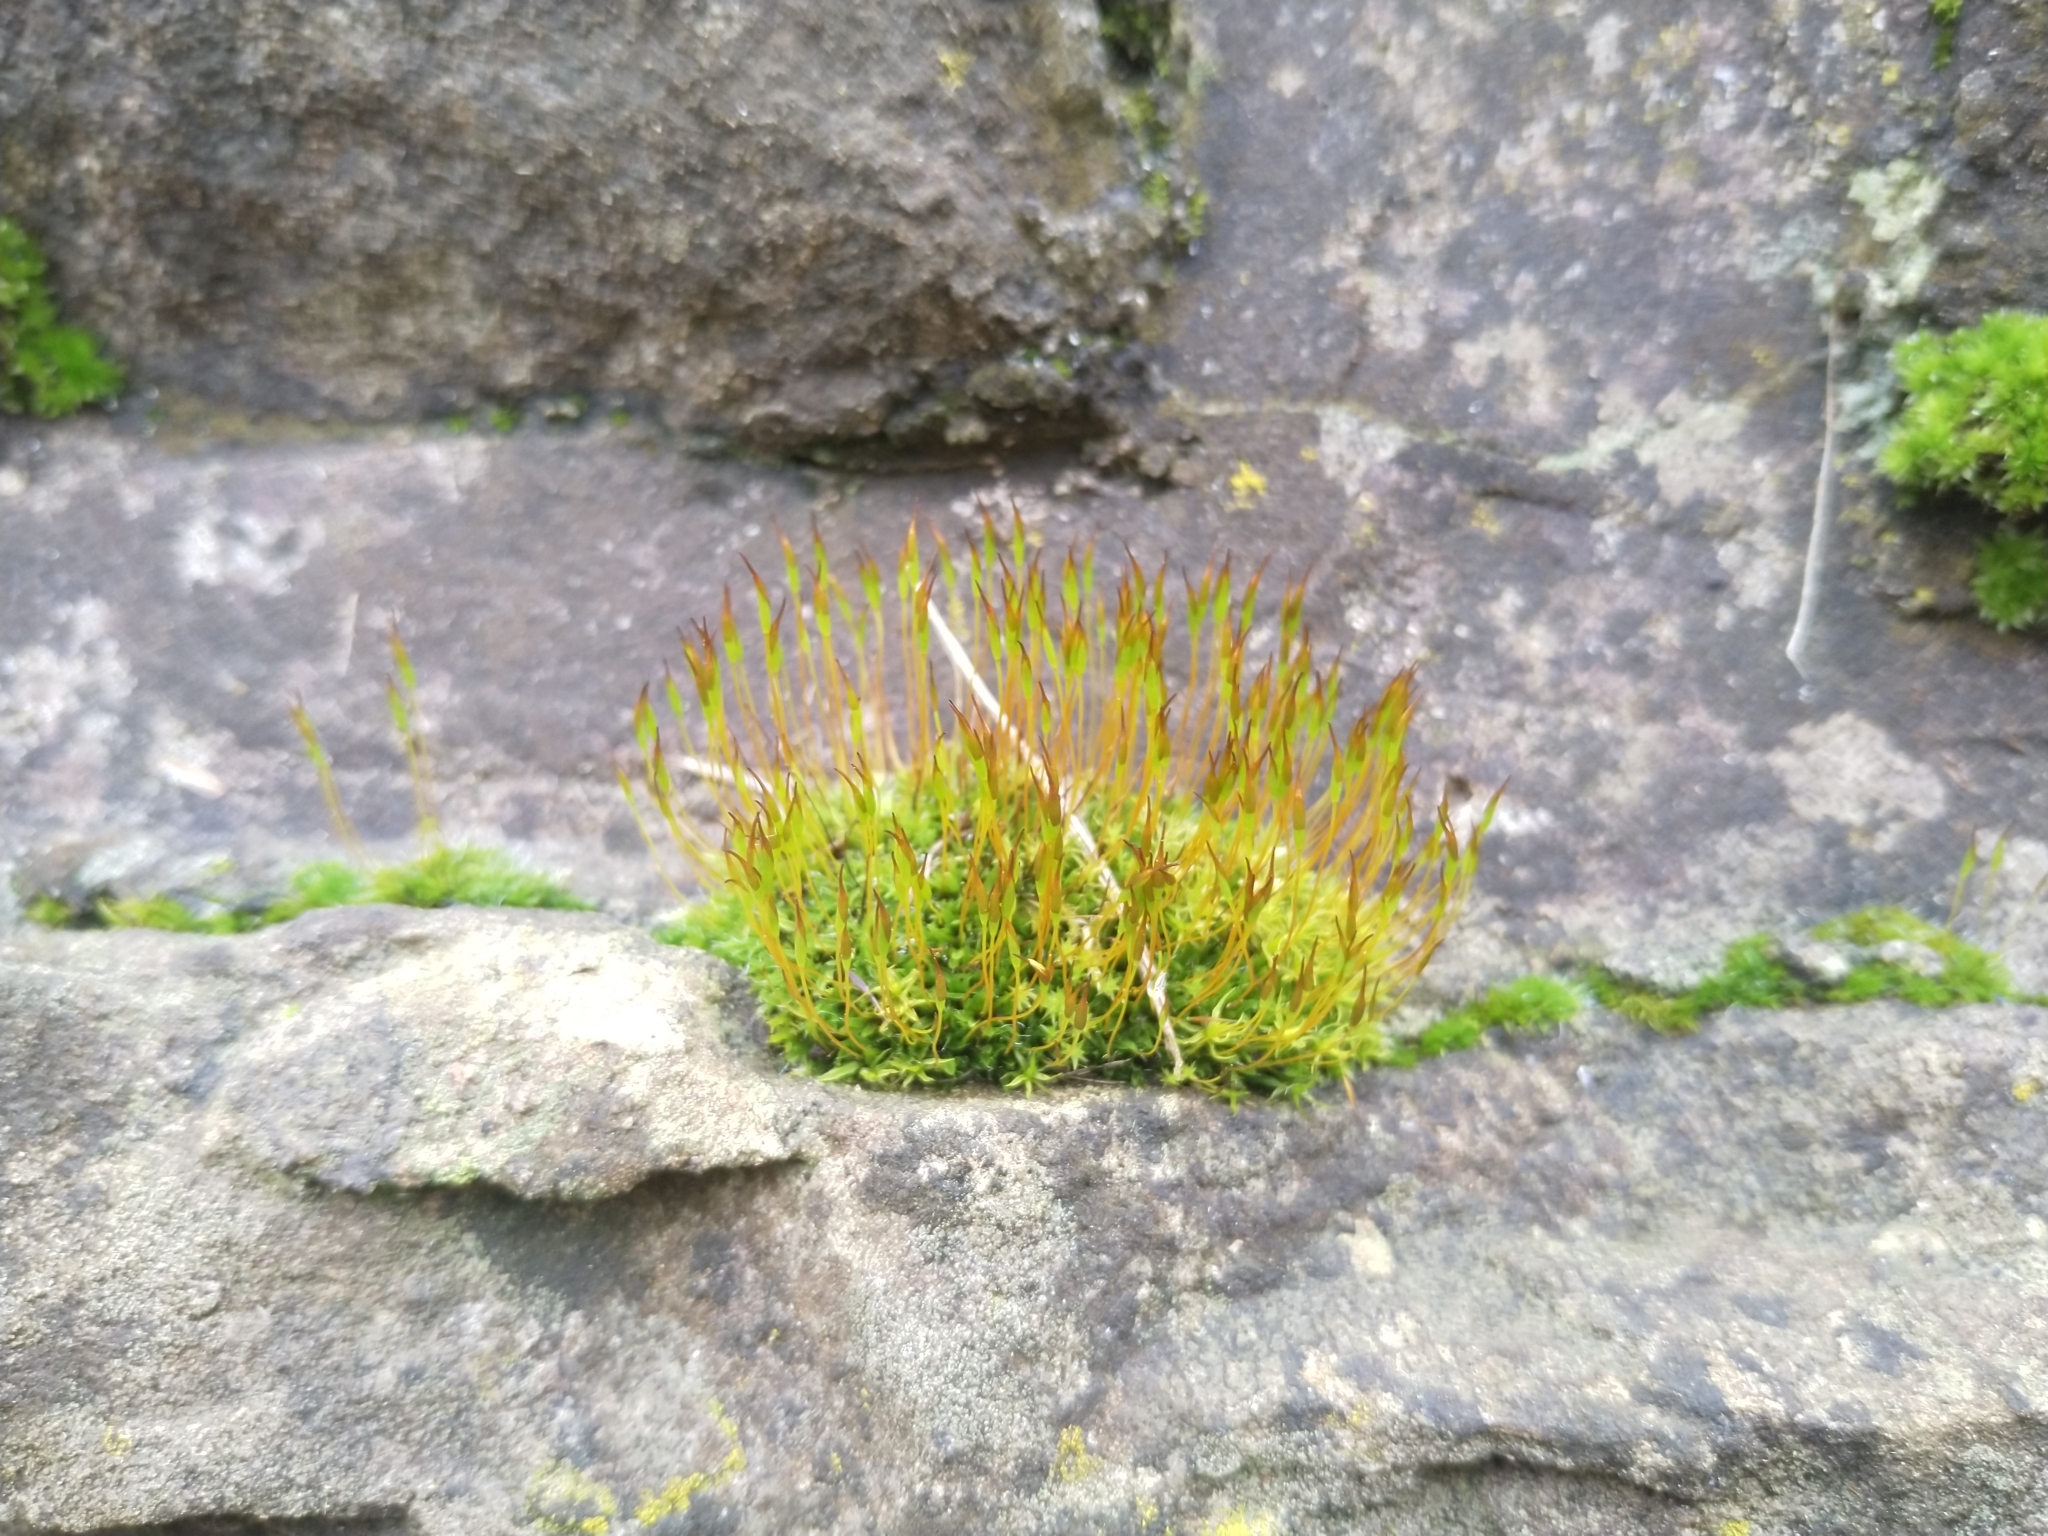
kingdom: Plantae
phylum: Bryophyta
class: Bryopsida
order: Pottiales
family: Pottiaceae
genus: Tortula
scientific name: Tortula muralis
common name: Wall screw-moss
